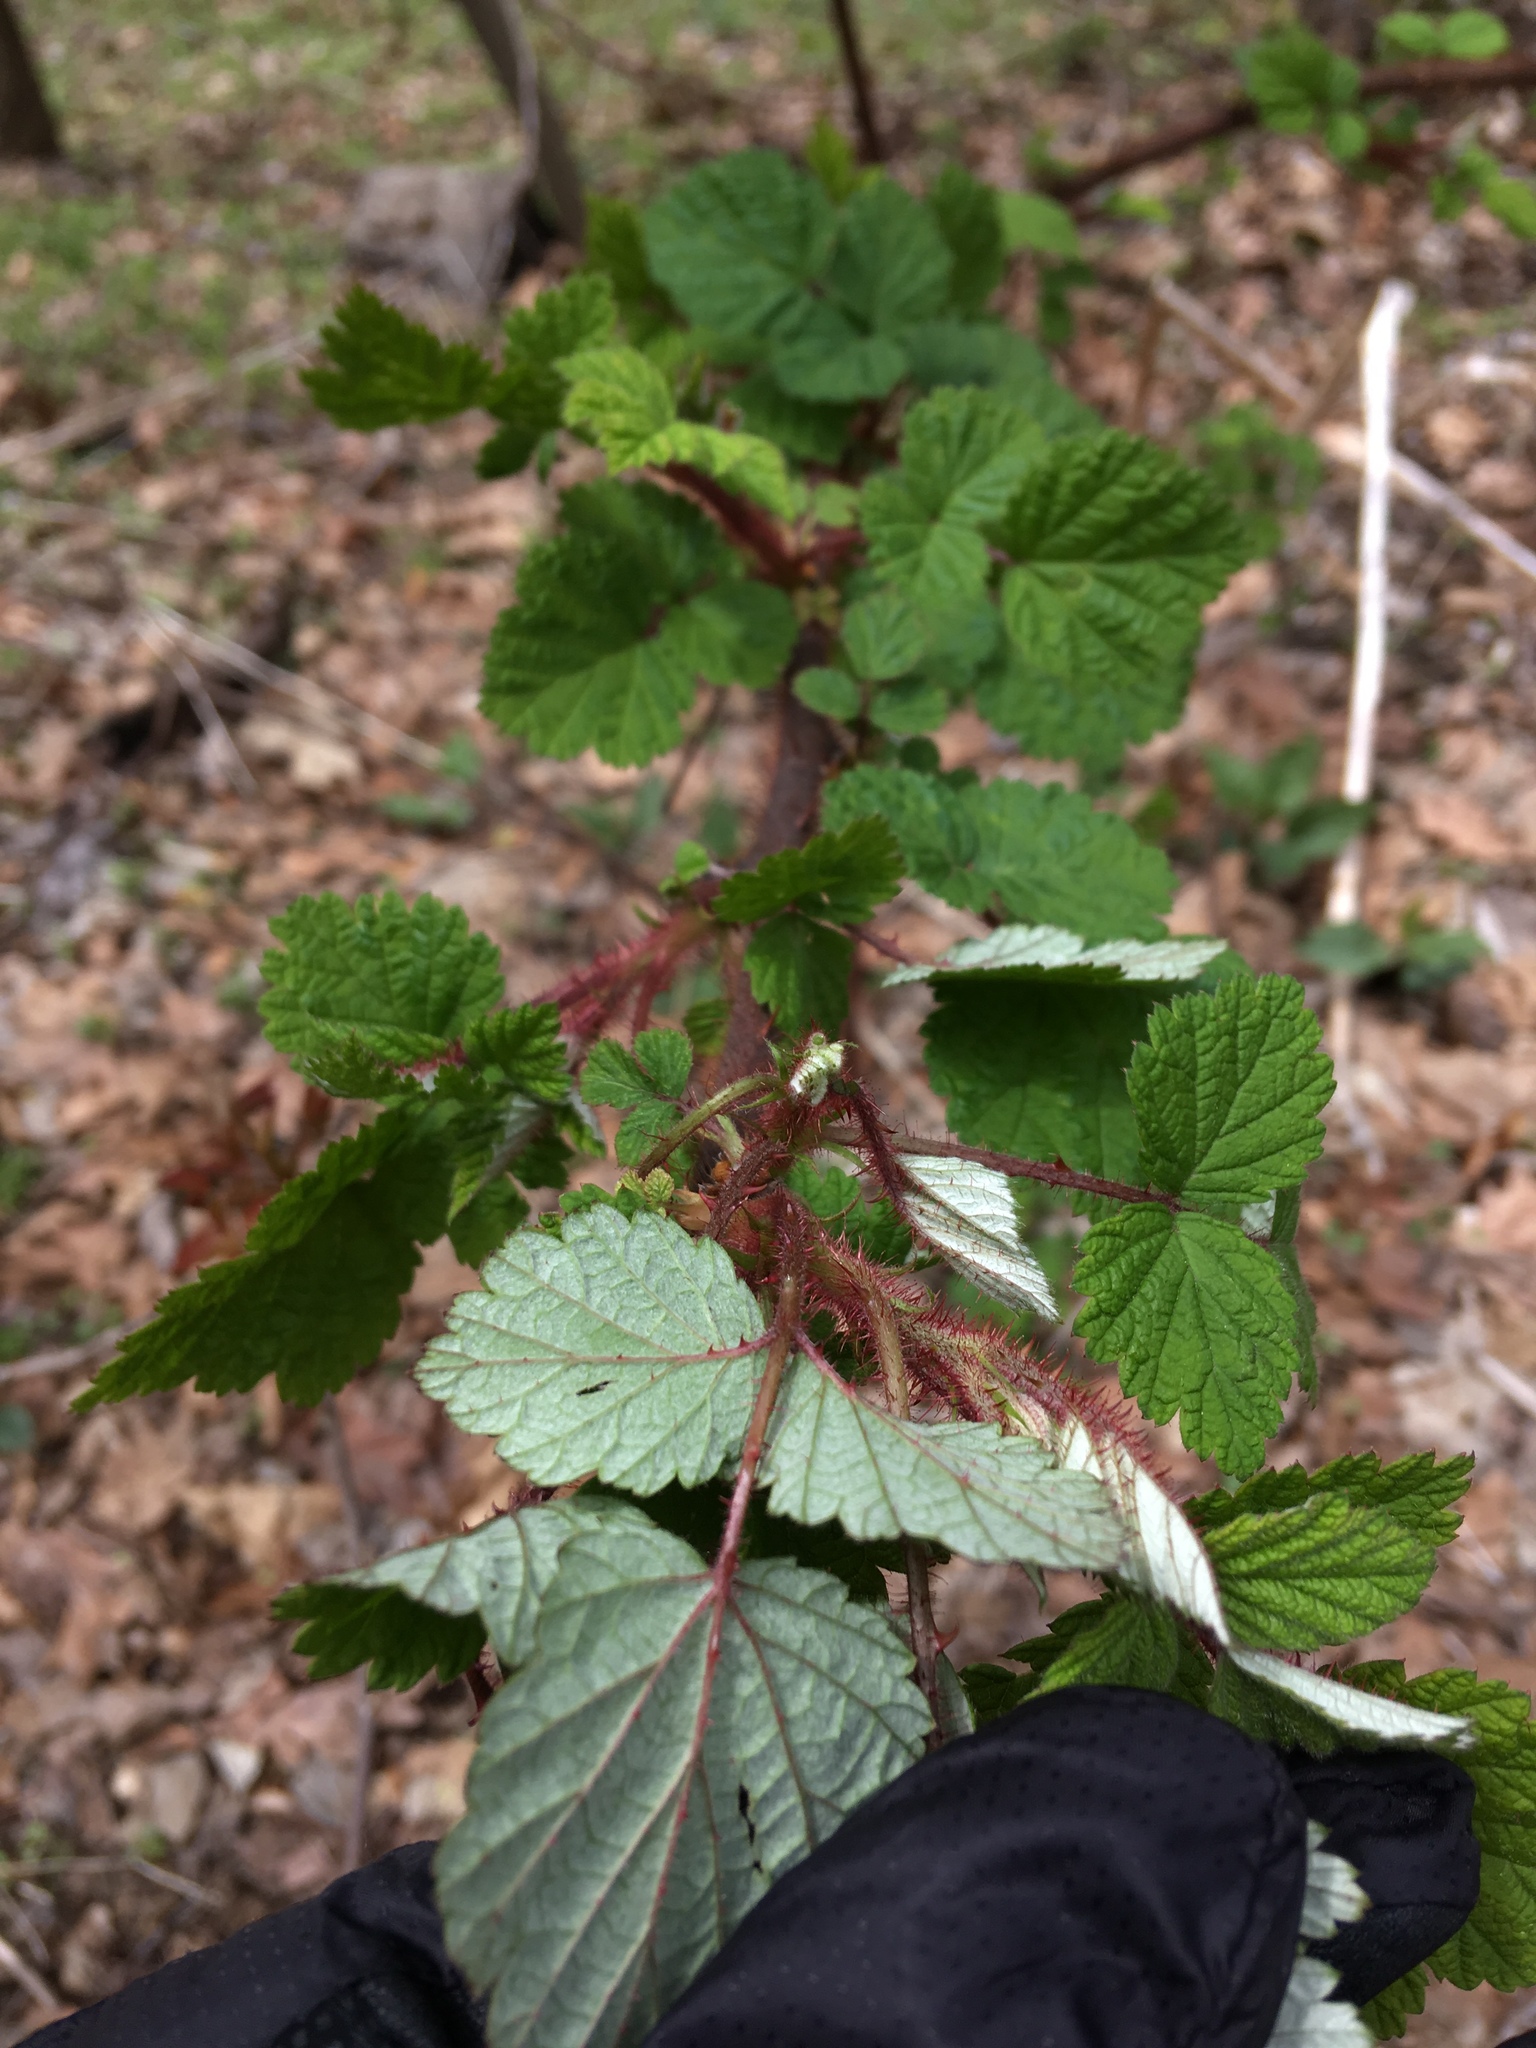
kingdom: Plantae
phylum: Tracheophyta
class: Magnoliopsida
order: Rosales
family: Rosaceae
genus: Rubus
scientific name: Rubus phoenicolasius
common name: Japanese wineberry
